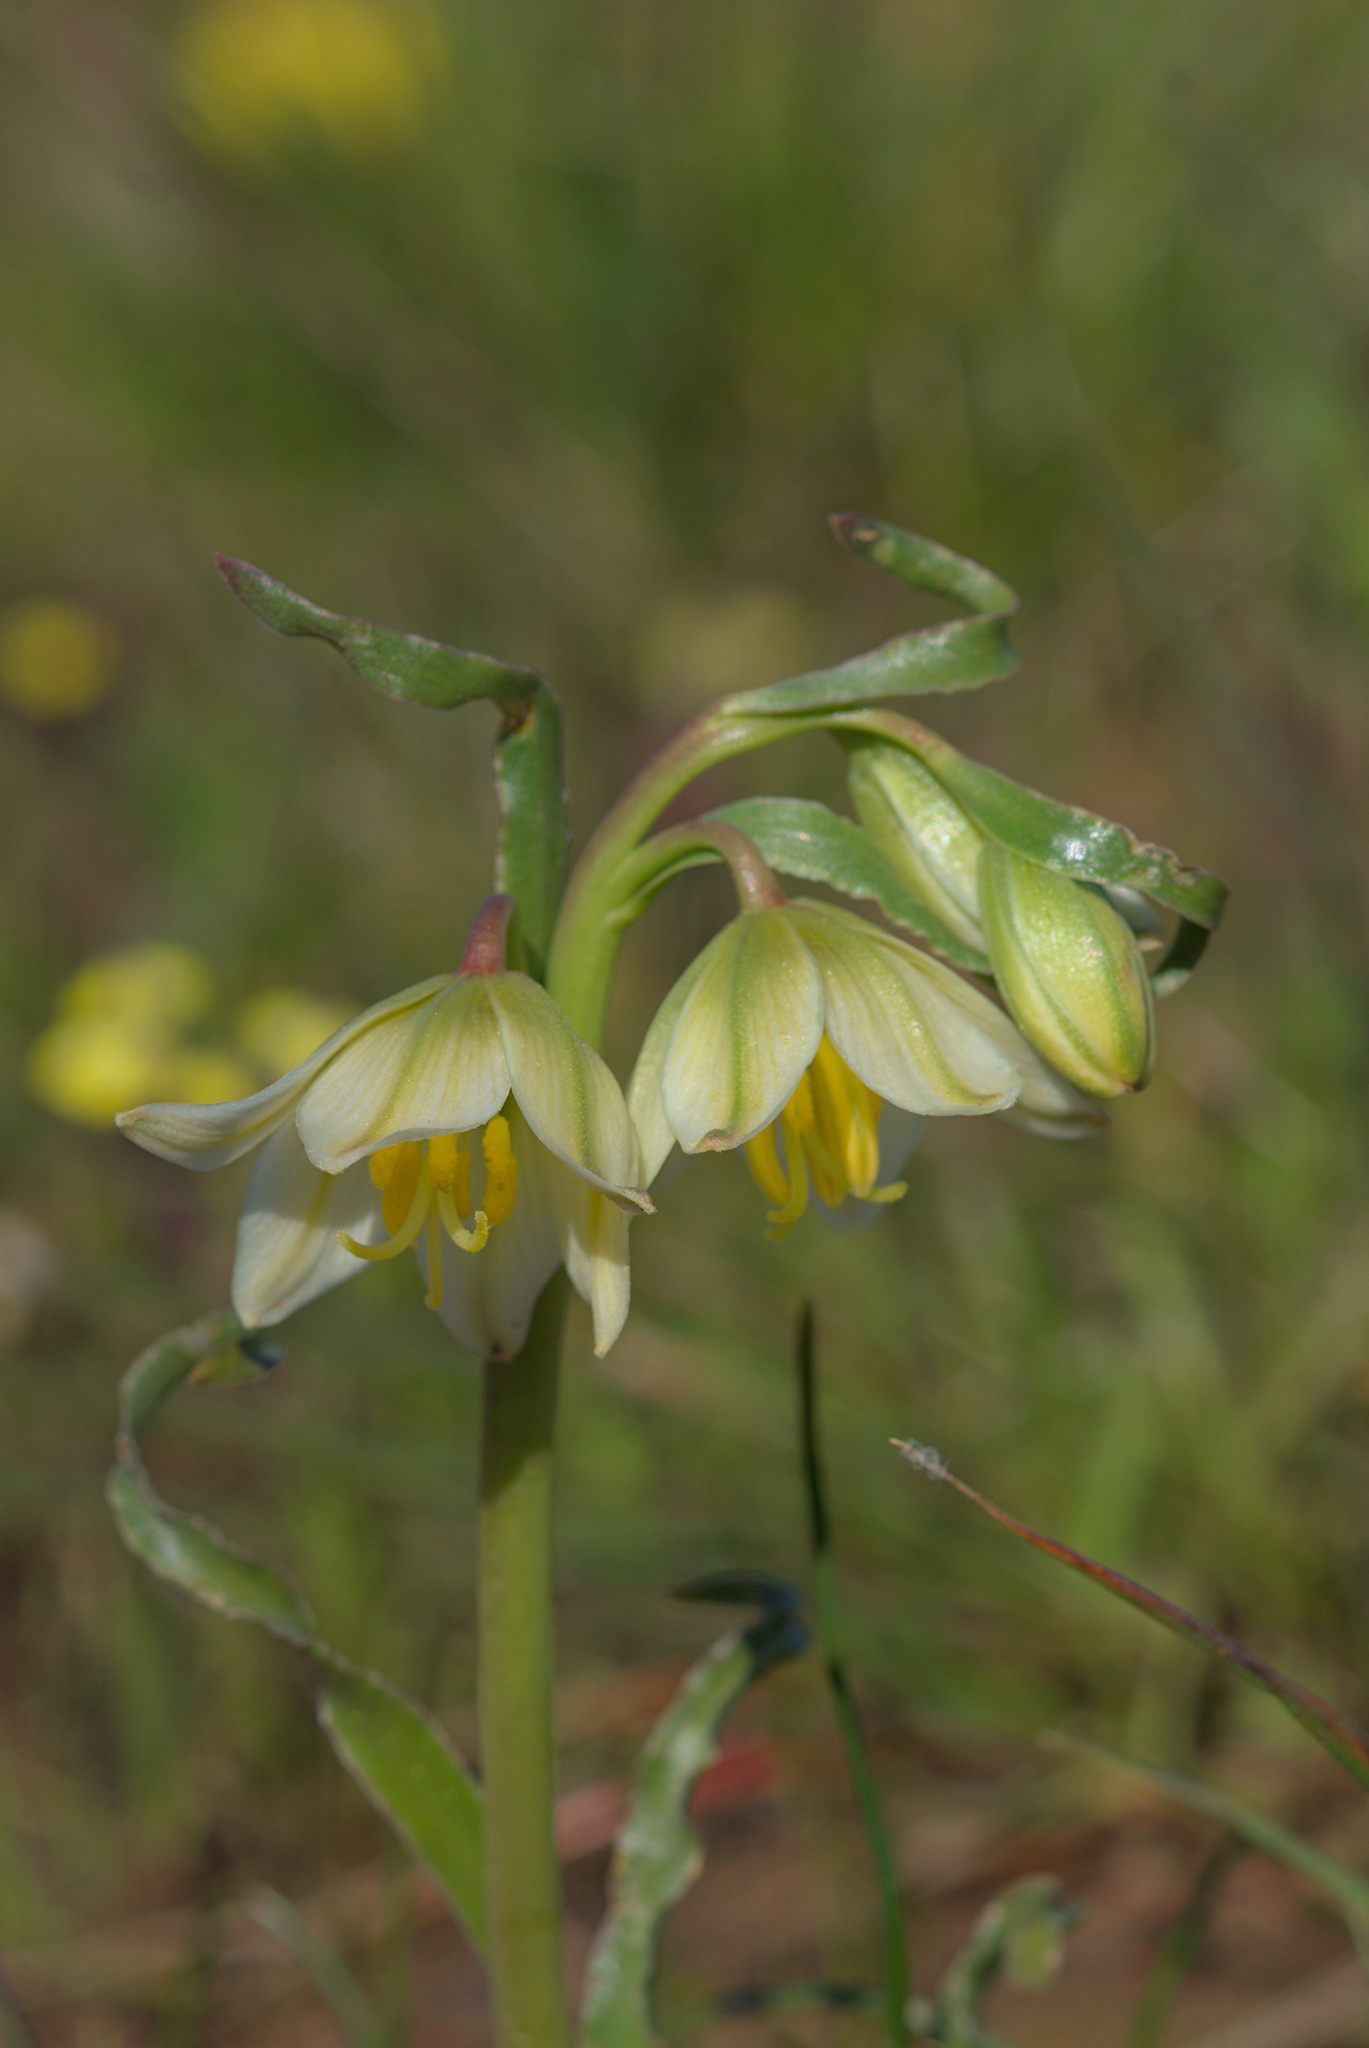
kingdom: Plantae
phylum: Tracheophyta
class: Liliopsida
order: Liliales
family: Liliaceae
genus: Fritillaria
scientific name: Fritillaria liliacea
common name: Fragrant fritillary
